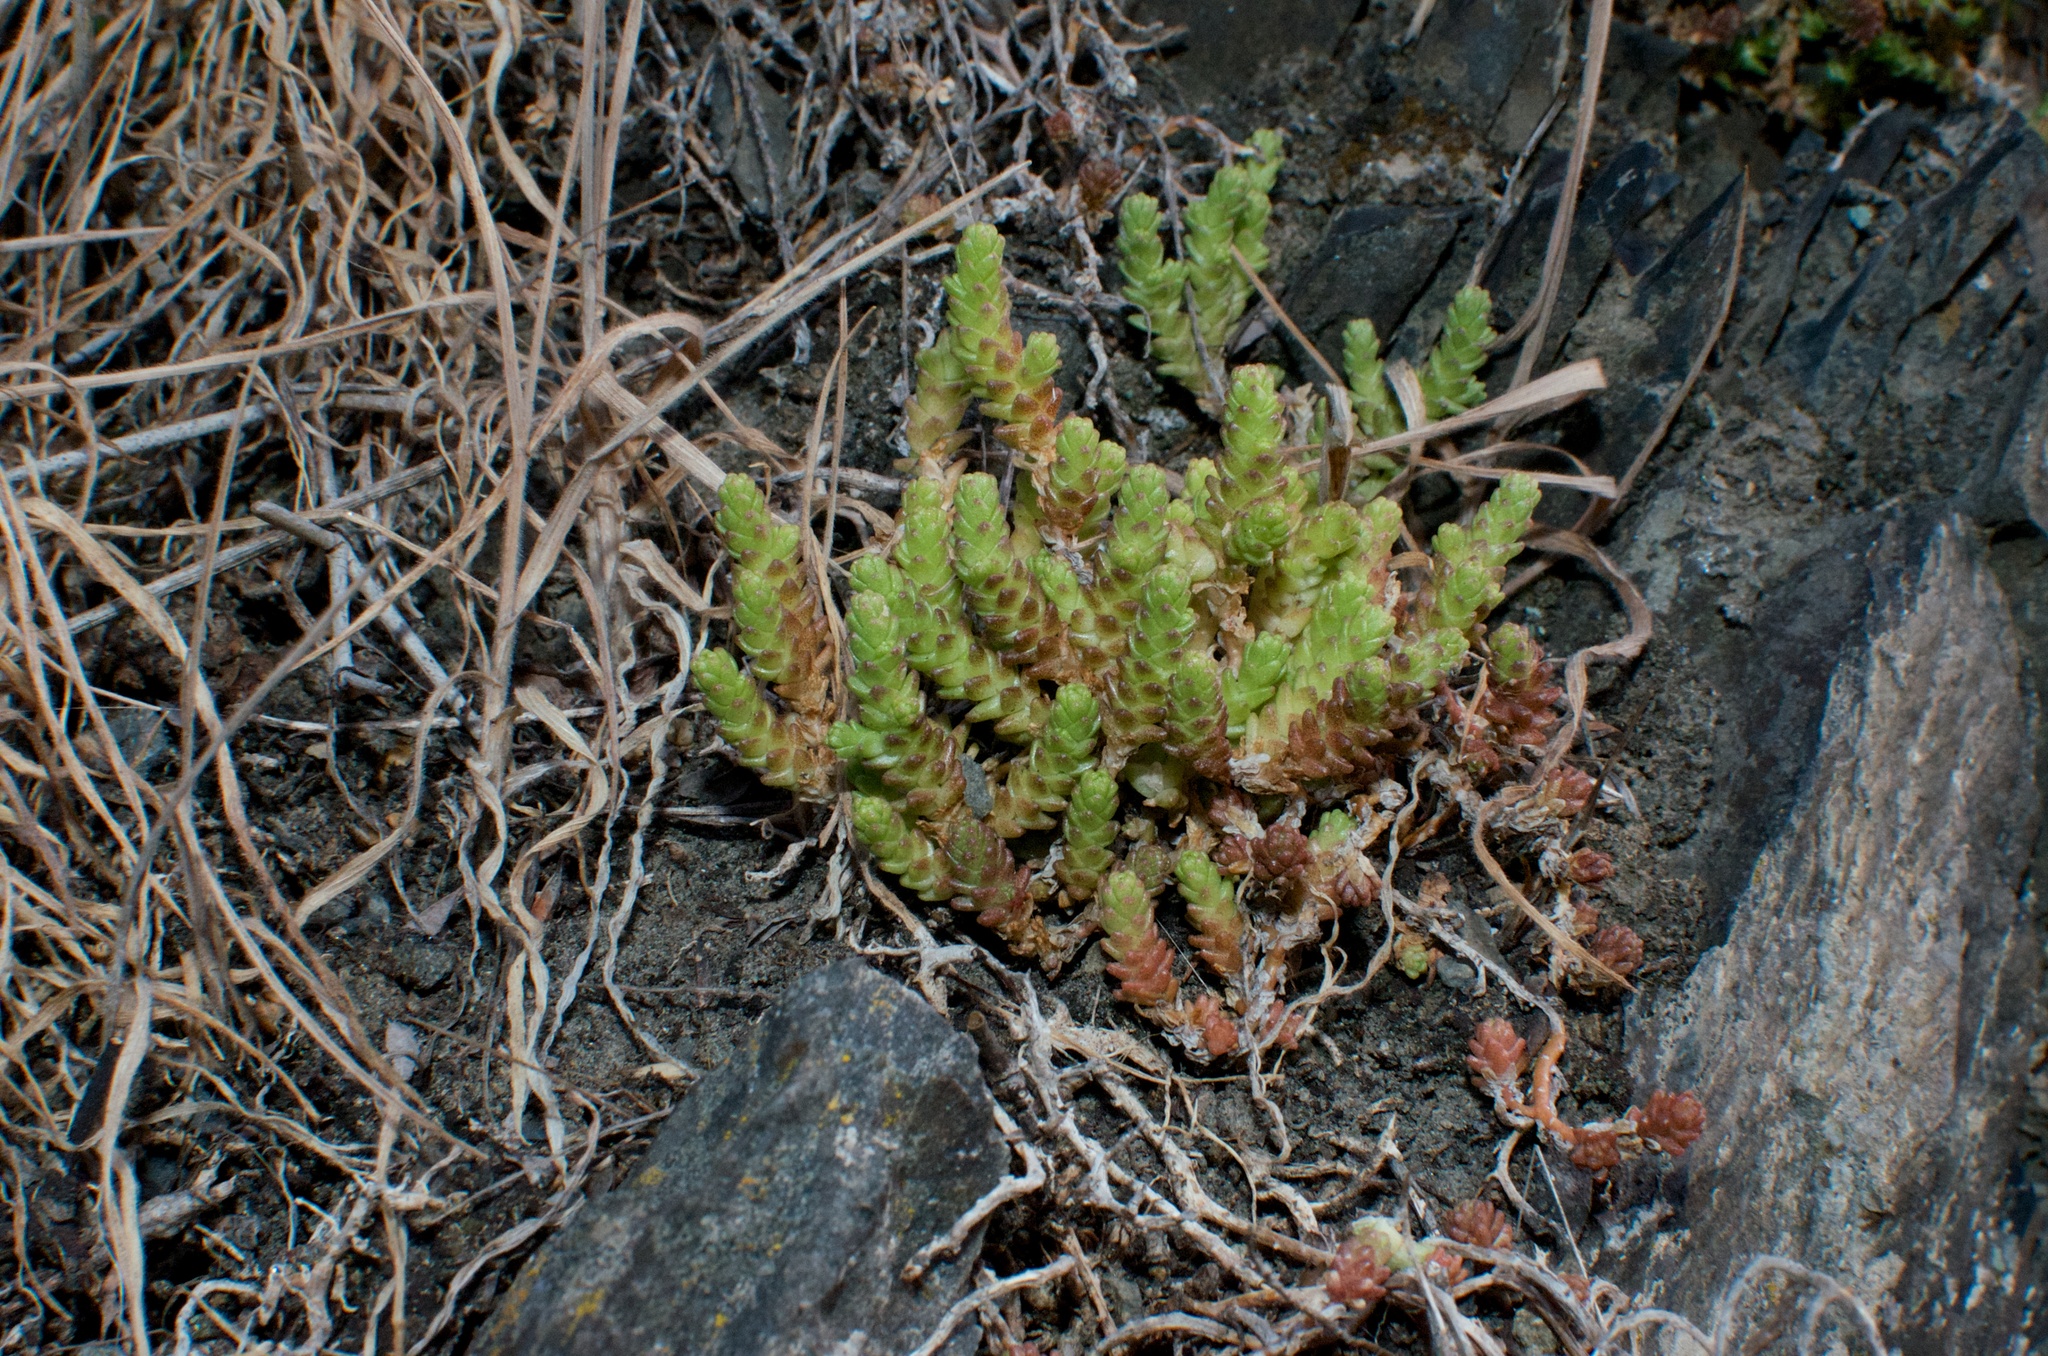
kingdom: Plantae
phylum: Tracheophyta
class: Magnoliopsida
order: Saxifragales
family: Crassulaceae
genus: Sedum
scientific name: Sedum acre
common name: Biting stonecrop
